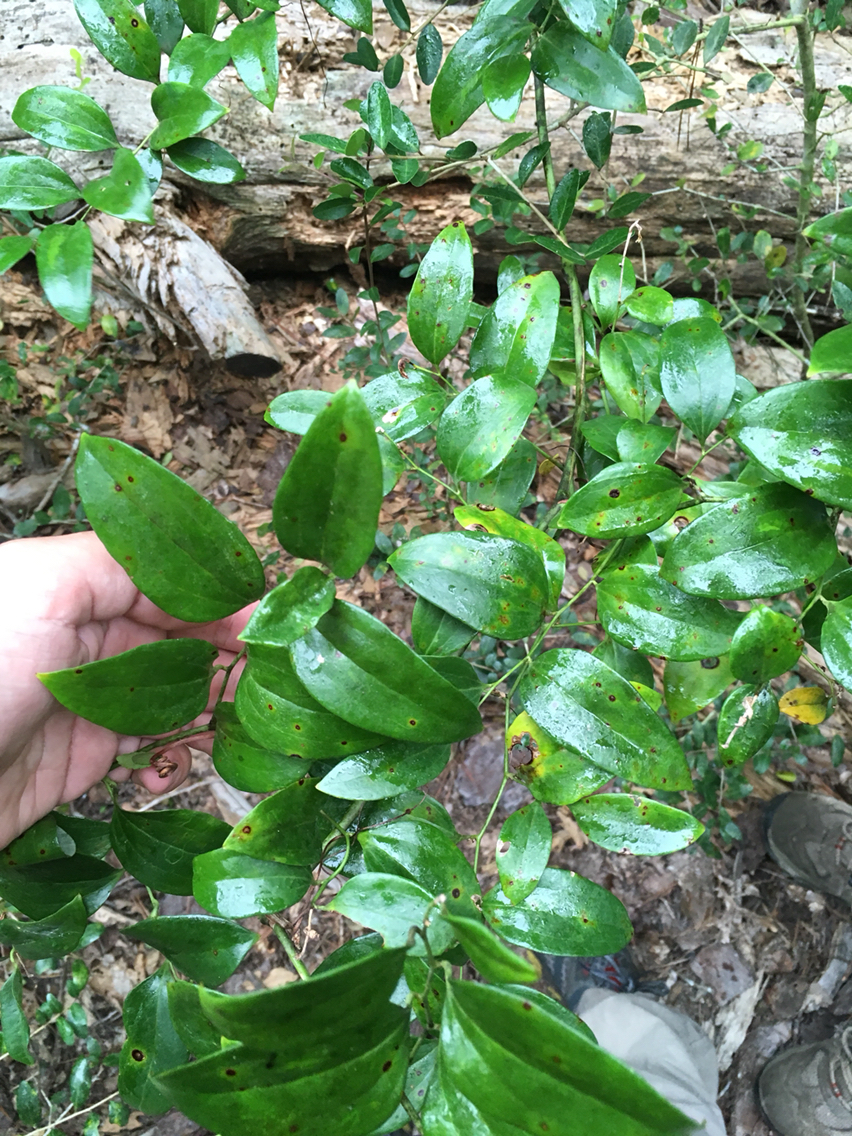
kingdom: Plantae
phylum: Tracheophyta
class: Liliopsida
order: Liliales
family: Smilacaceae
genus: Smilax
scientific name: Smilax maritima
